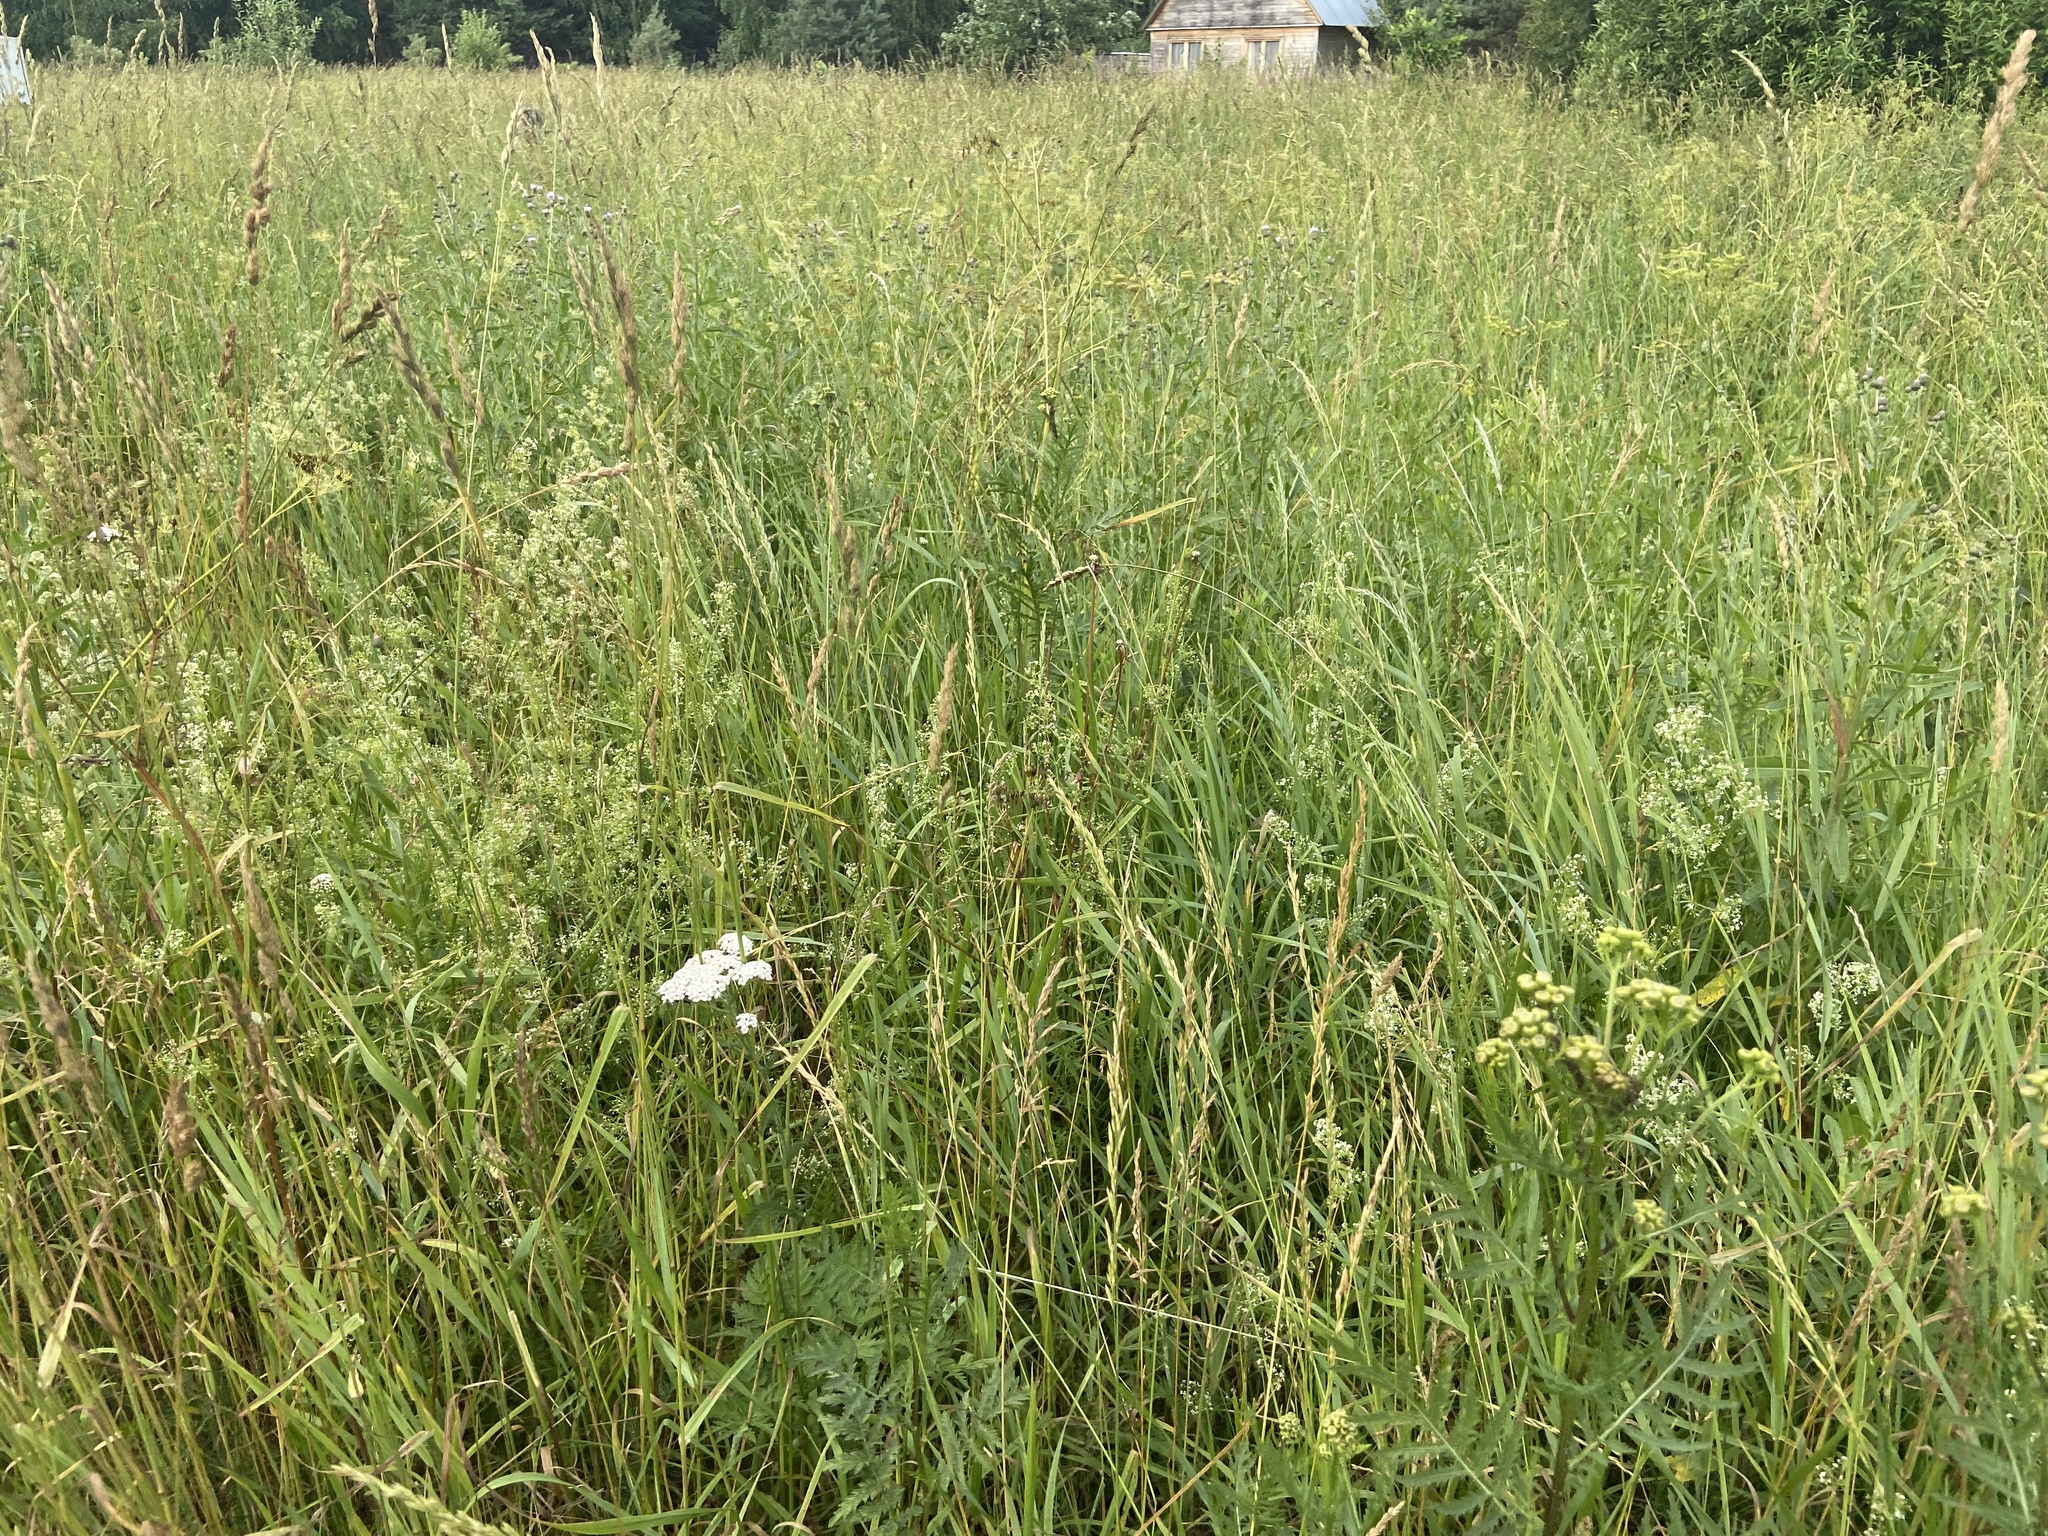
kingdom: Plantae
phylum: Tracheophyta
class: Liliopsida
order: Poales
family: Poaceae
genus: Dactylis
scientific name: Dactylis glomerata
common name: Orchardgrass
